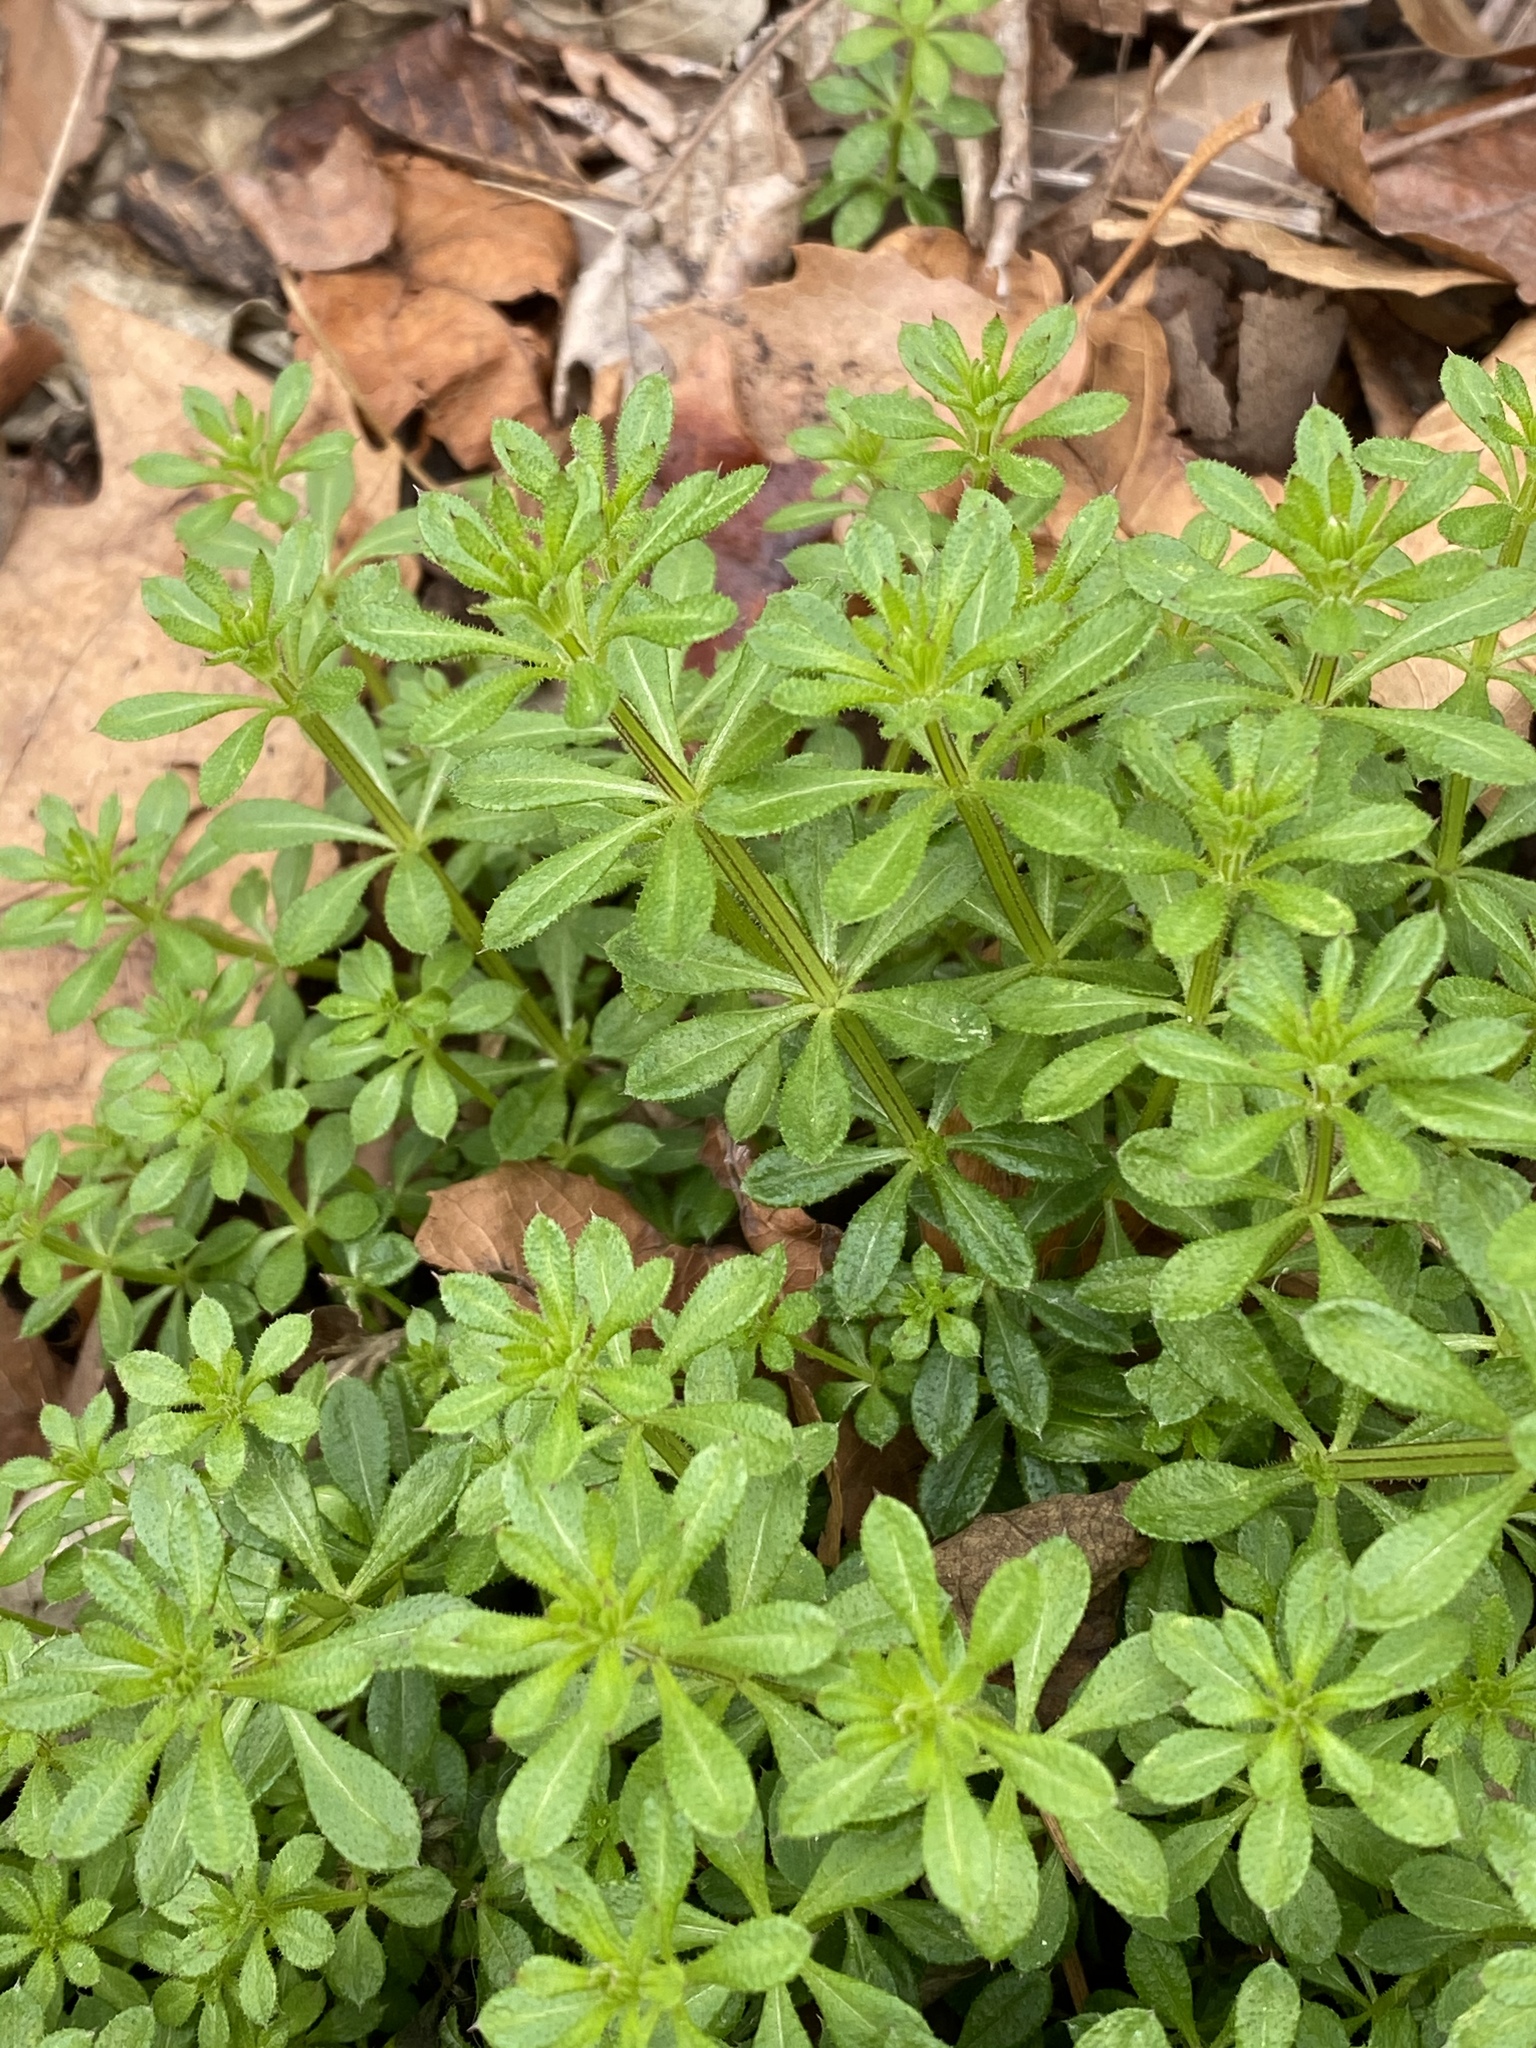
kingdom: Plantae
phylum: Tracheophyta
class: Magnoliopsida
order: Gentianales
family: Rubiaceae
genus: Galium
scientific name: Galium aparine
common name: Cleavers
